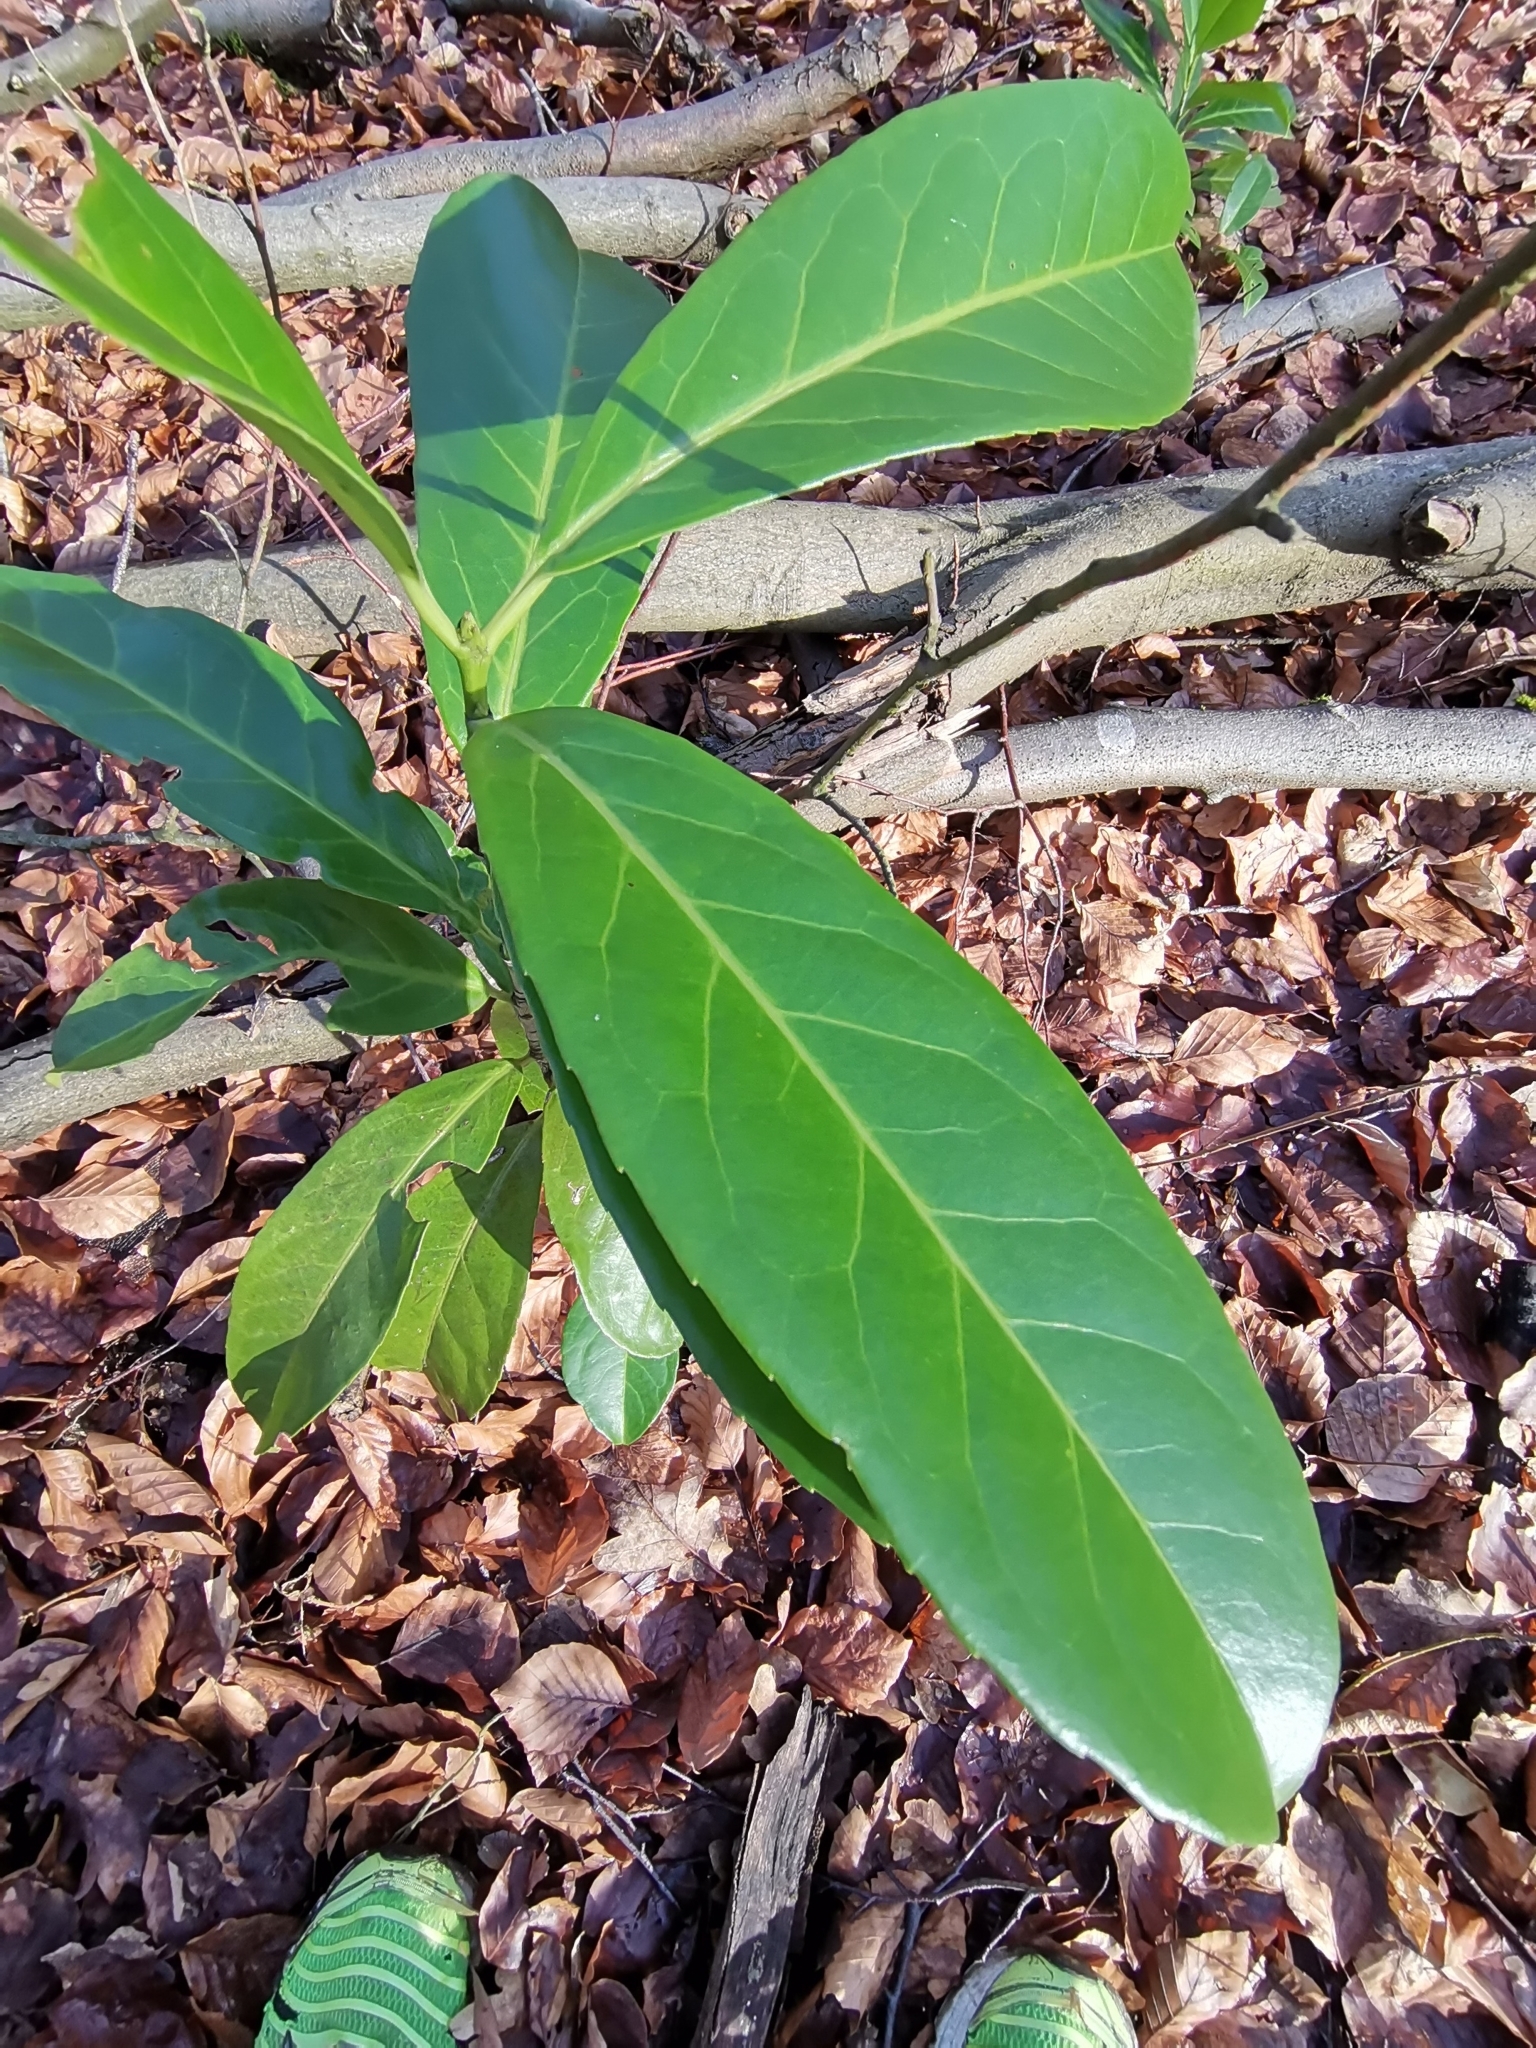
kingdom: Plantae
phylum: Tracheophyta
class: Magnoliopsida
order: Rosales
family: Rosaceae
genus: Prunus
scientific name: Prunus laurocerasus
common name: Cherry laurel
